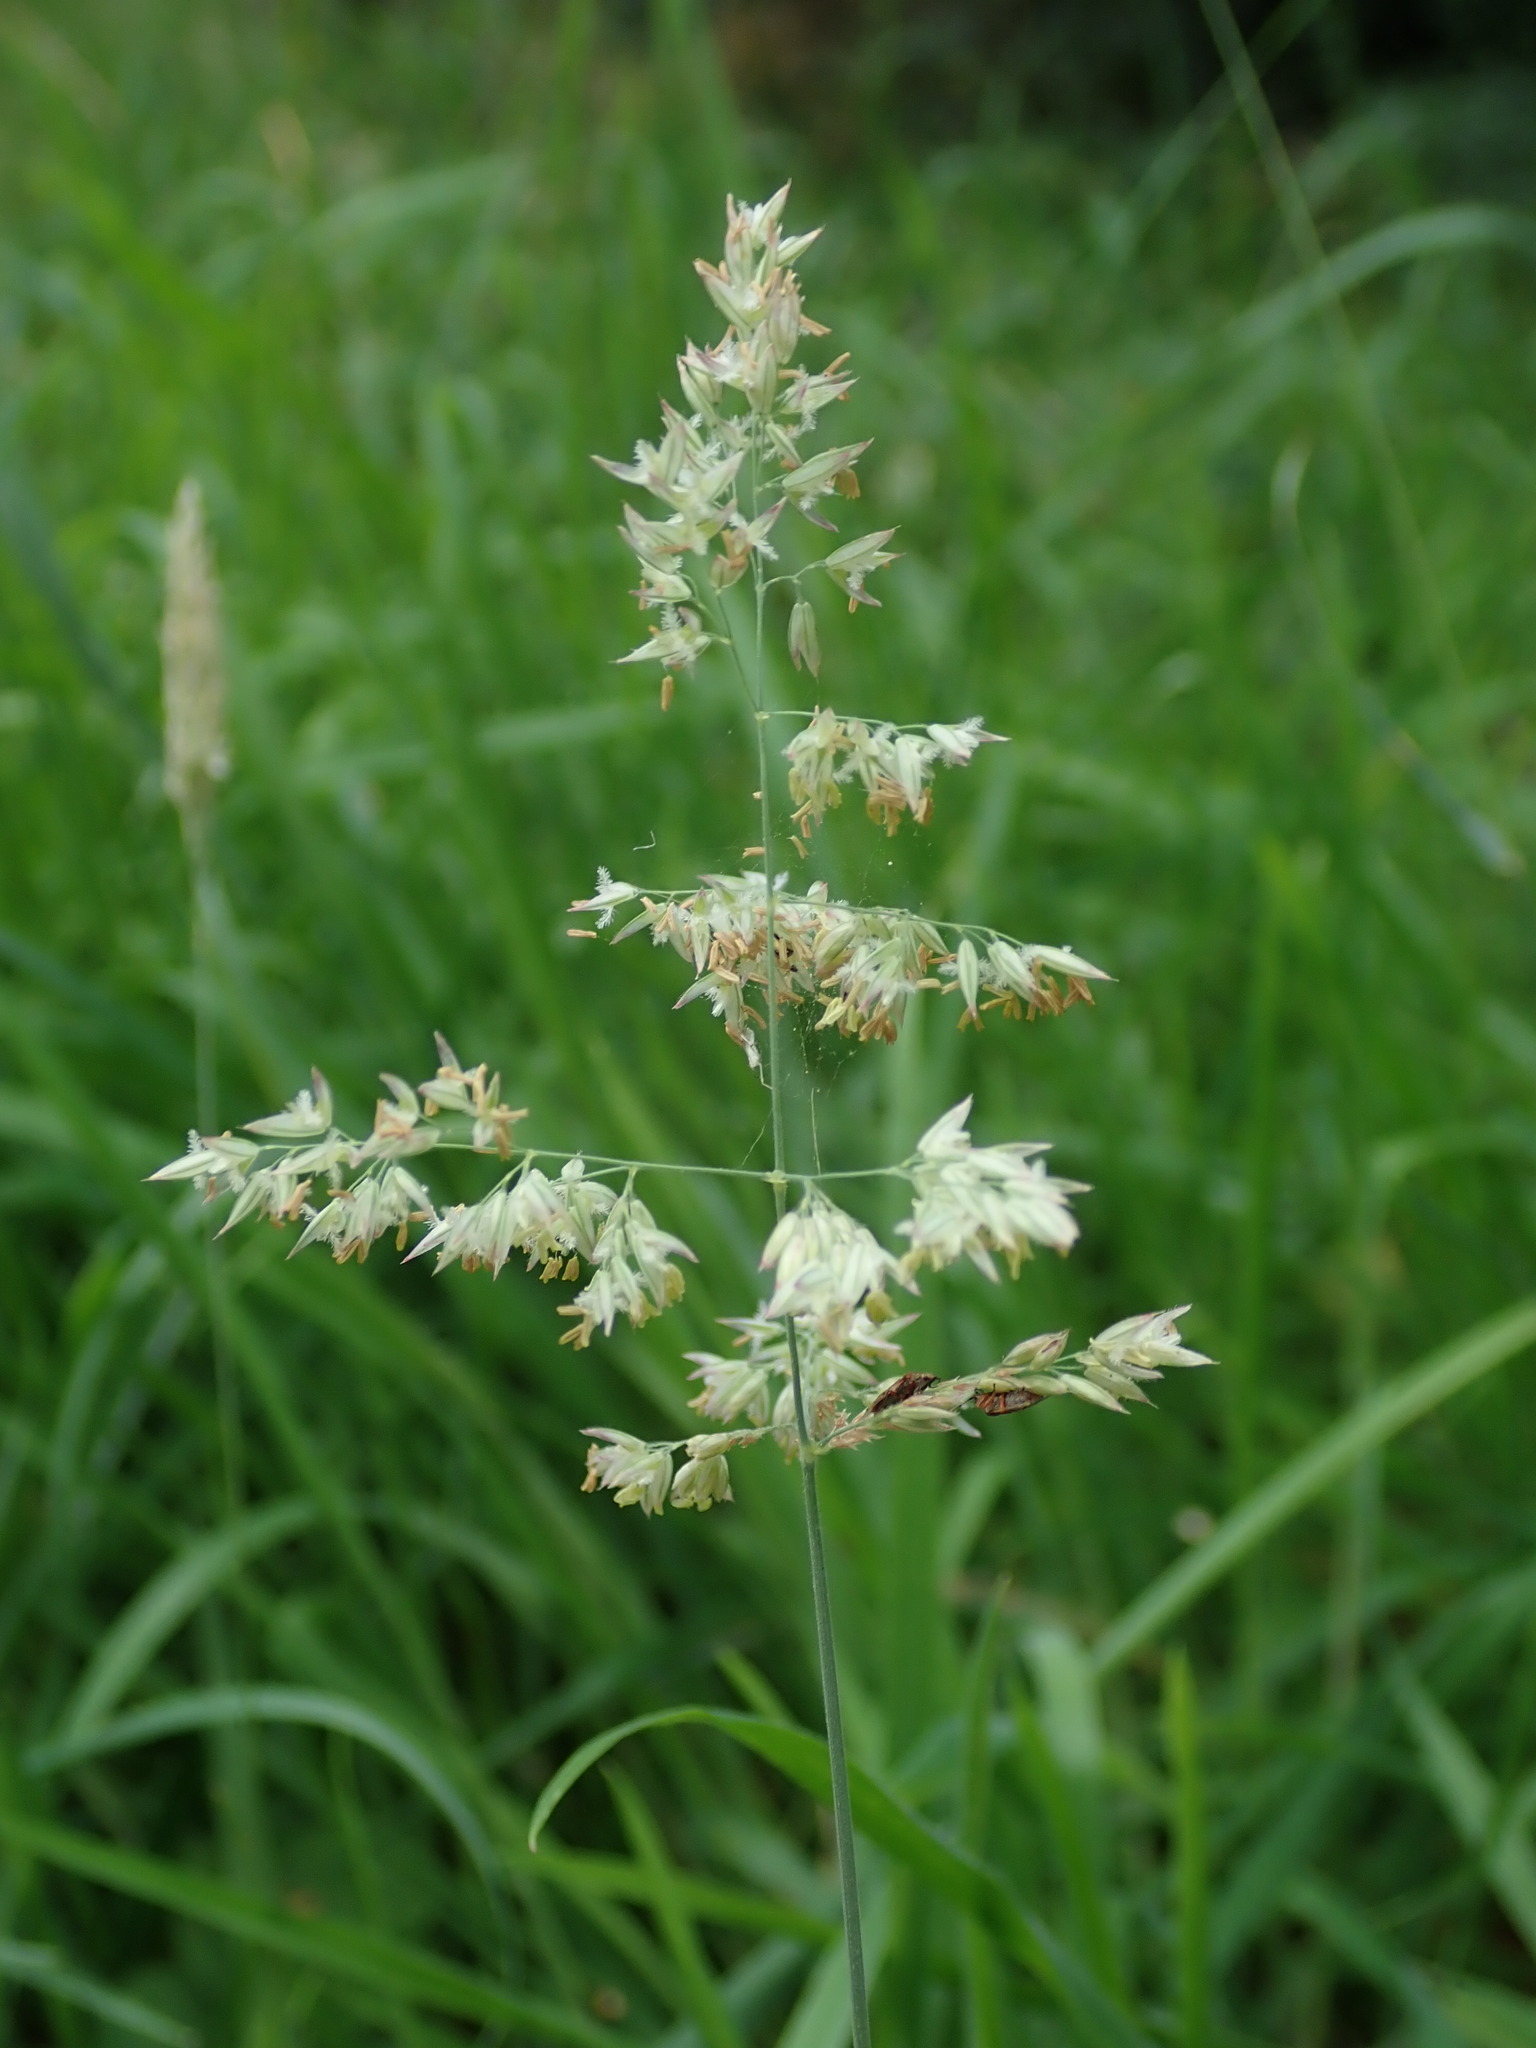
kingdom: Plantae
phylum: Tracheophyta
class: Liliopsida
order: Poales
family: Poaceae
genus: Holcus
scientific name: Holcus lanatus
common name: Yorkshire-fog
